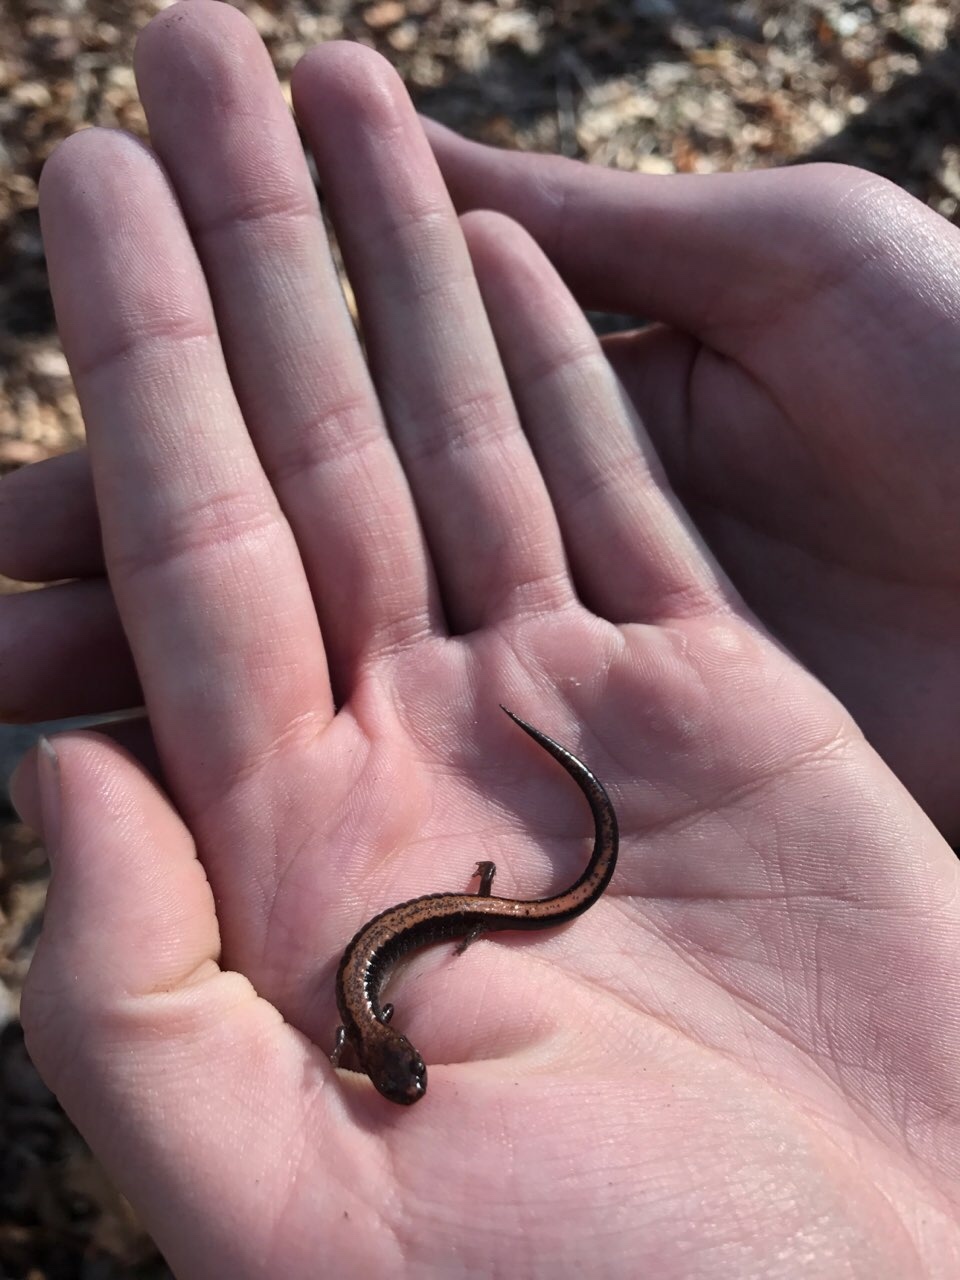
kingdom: Animalia
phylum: Chordata
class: Amphibia
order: Caudata
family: Plethodontidae
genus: Plethodon
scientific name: Plethodon cinereus
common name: Redback salamander
